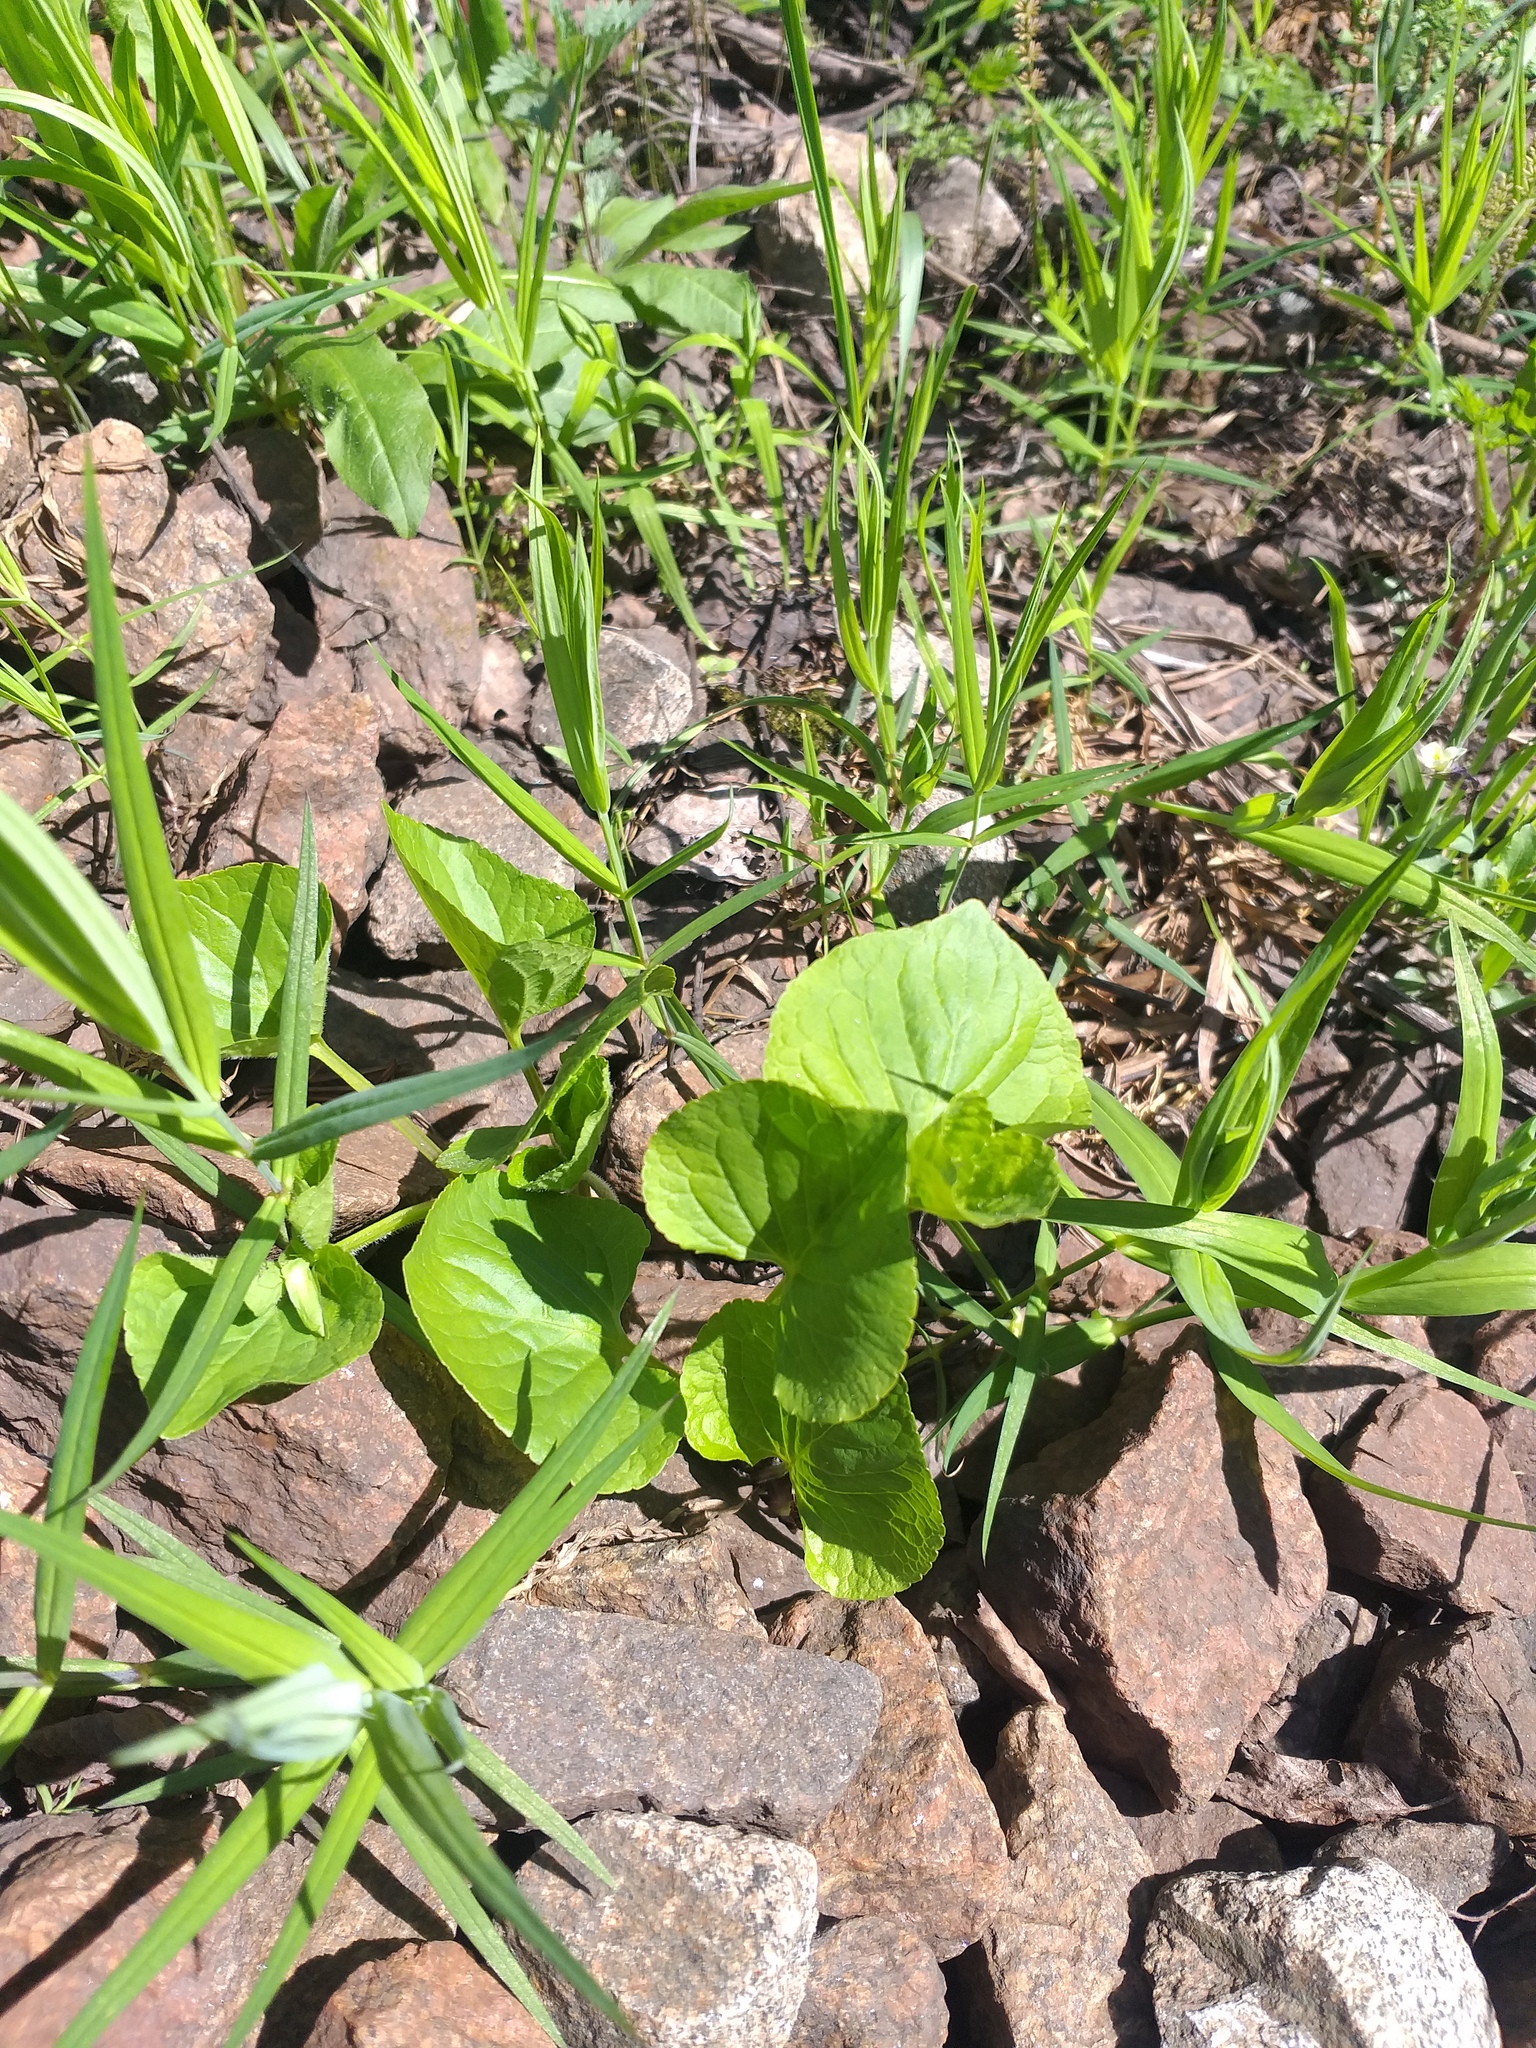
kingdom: Plantae
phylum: Tracheophyta
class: Magnoliopsida
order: Malpighiales
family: Violaceae
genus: Viola
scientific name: Viola mirabilis
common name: Wonder violet
